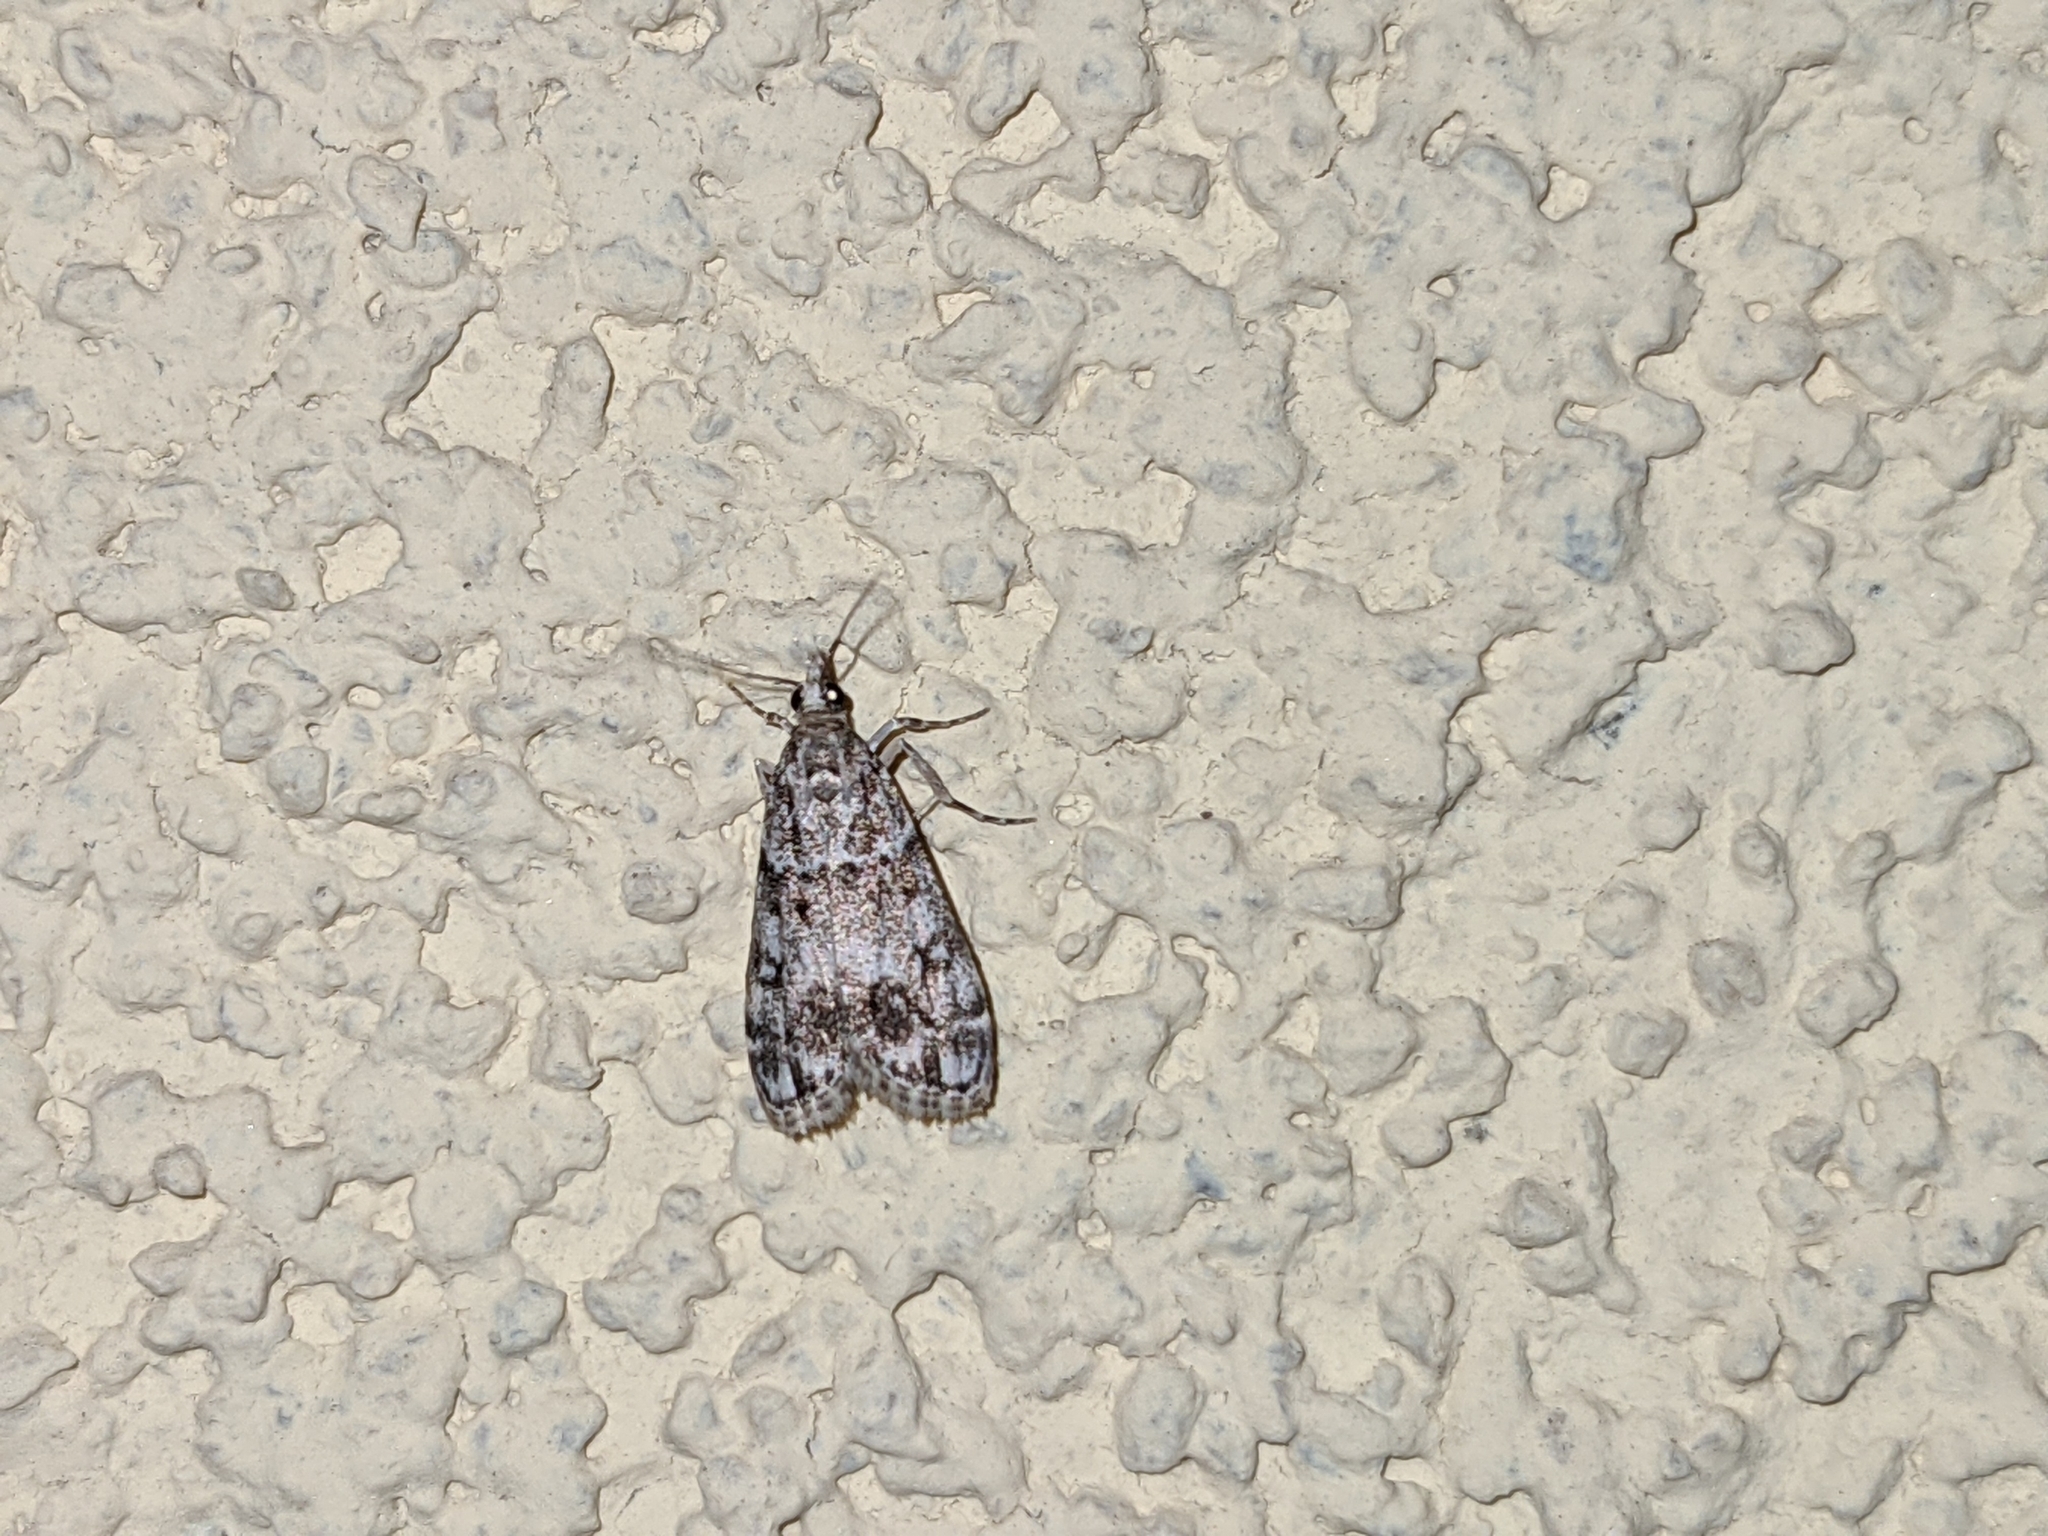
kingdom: Animalia
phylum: Arthropoda
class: Insecta
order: Lepidoptera
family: Crambidae
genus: Eudonia
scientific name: Eudonia lacustrata
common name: Little grey
